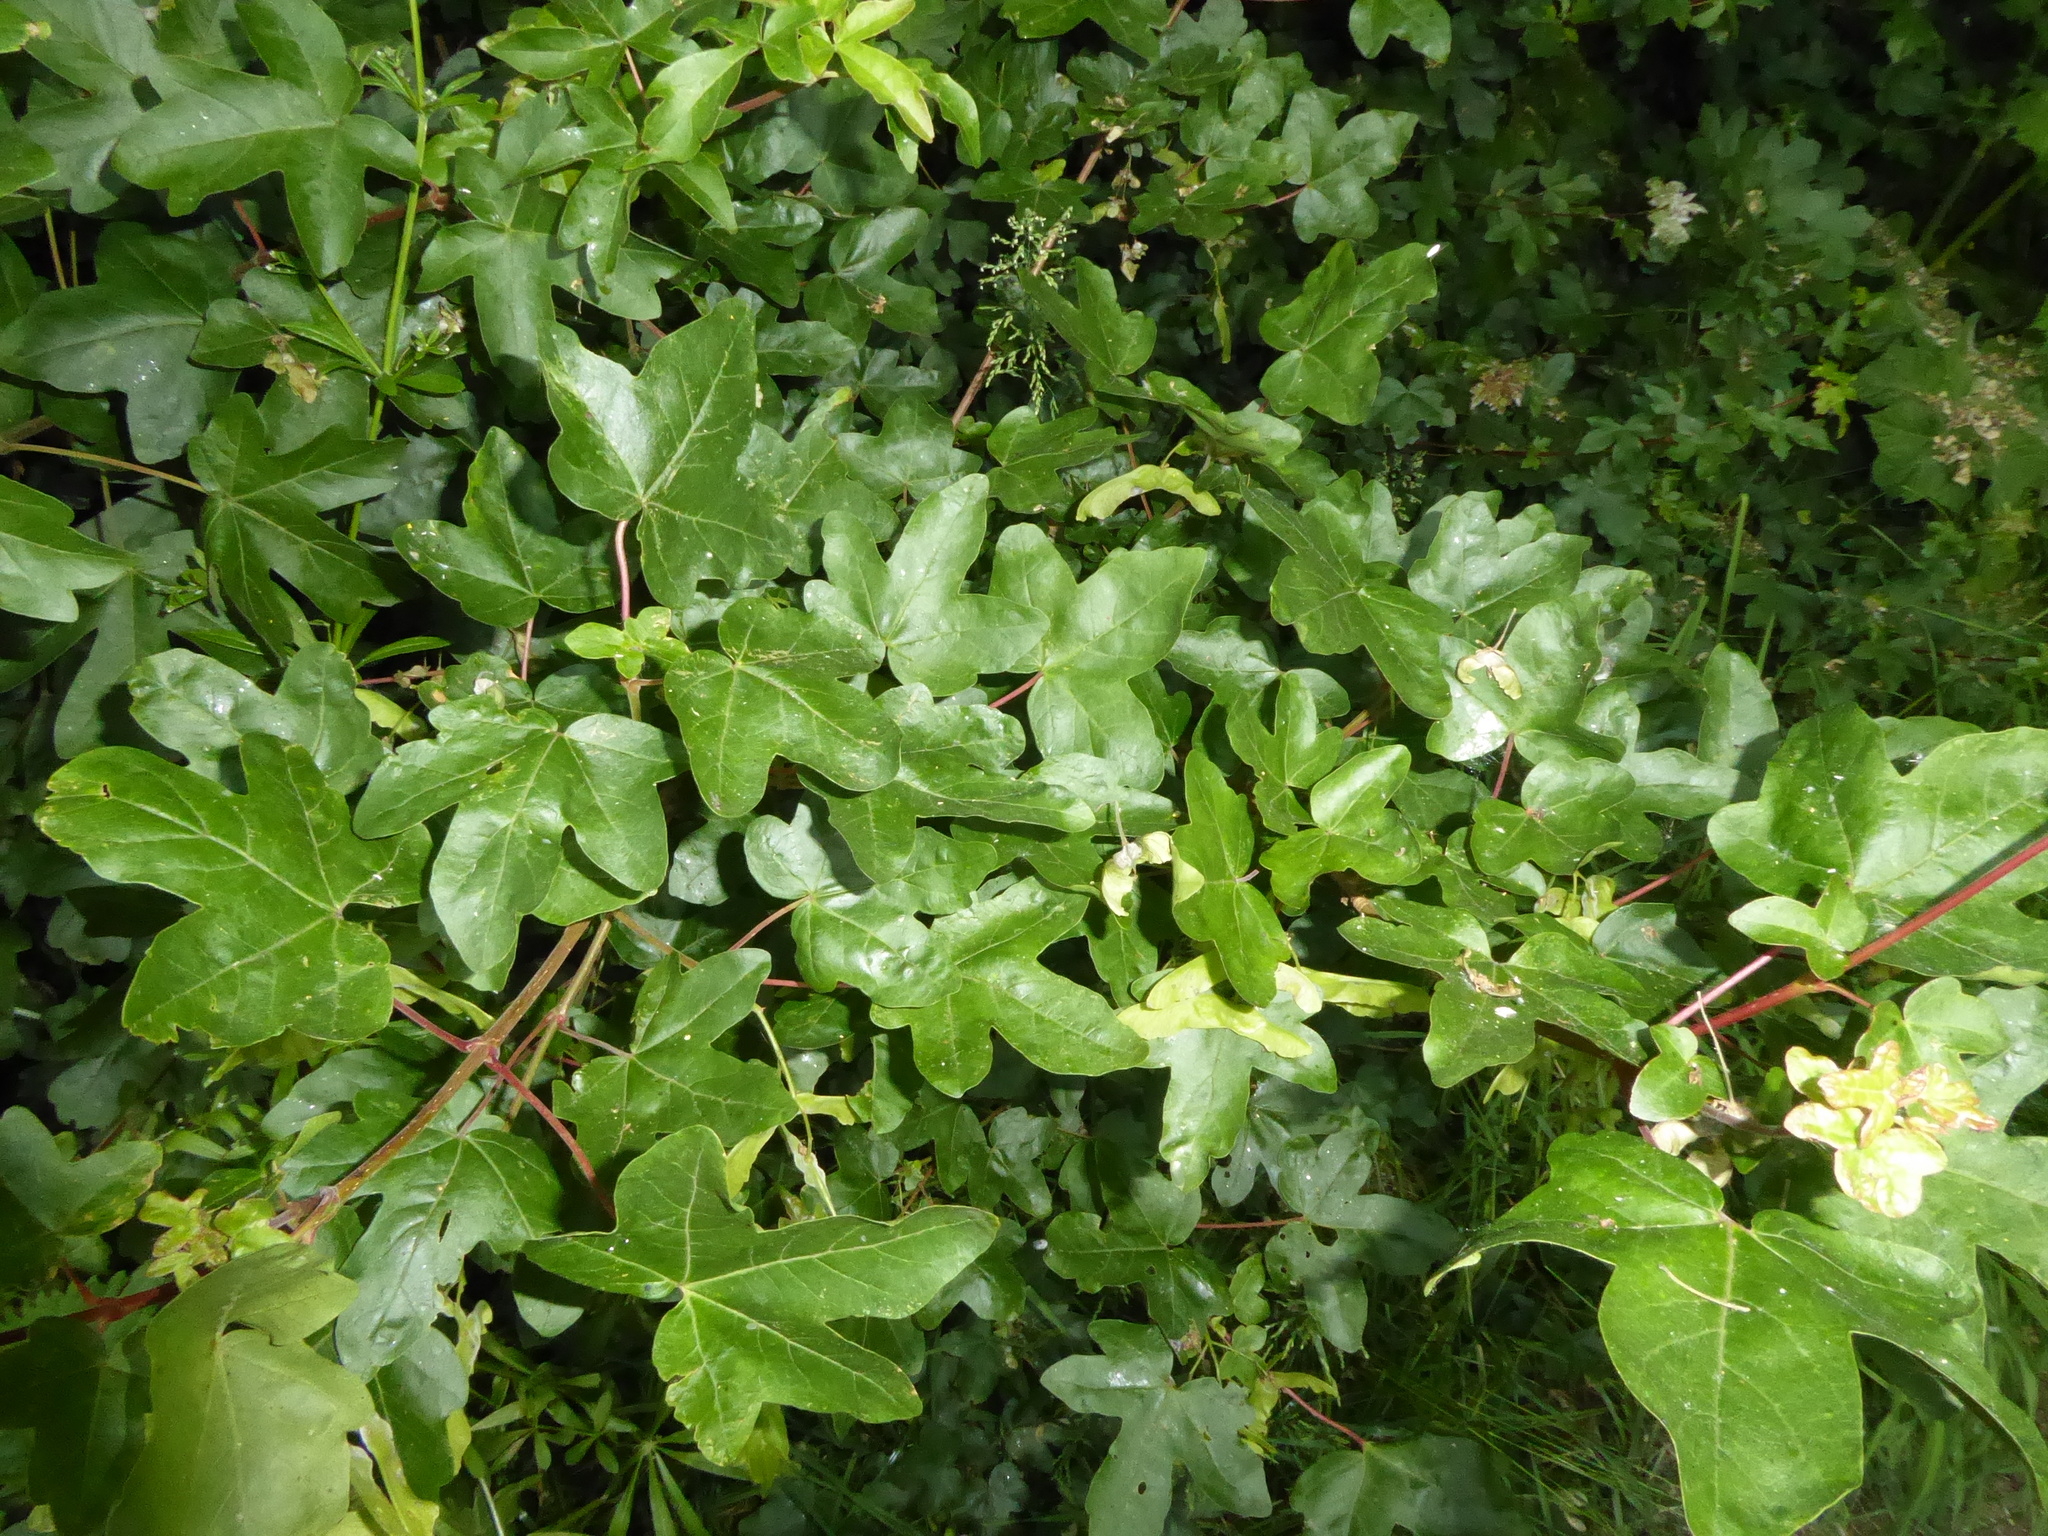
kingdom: Plantae
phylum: Tracheophyta
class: Magnoliopsida
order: Sapindales
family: Sapindaceae
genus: Acer
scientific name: Acer campestre
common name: Field maple
